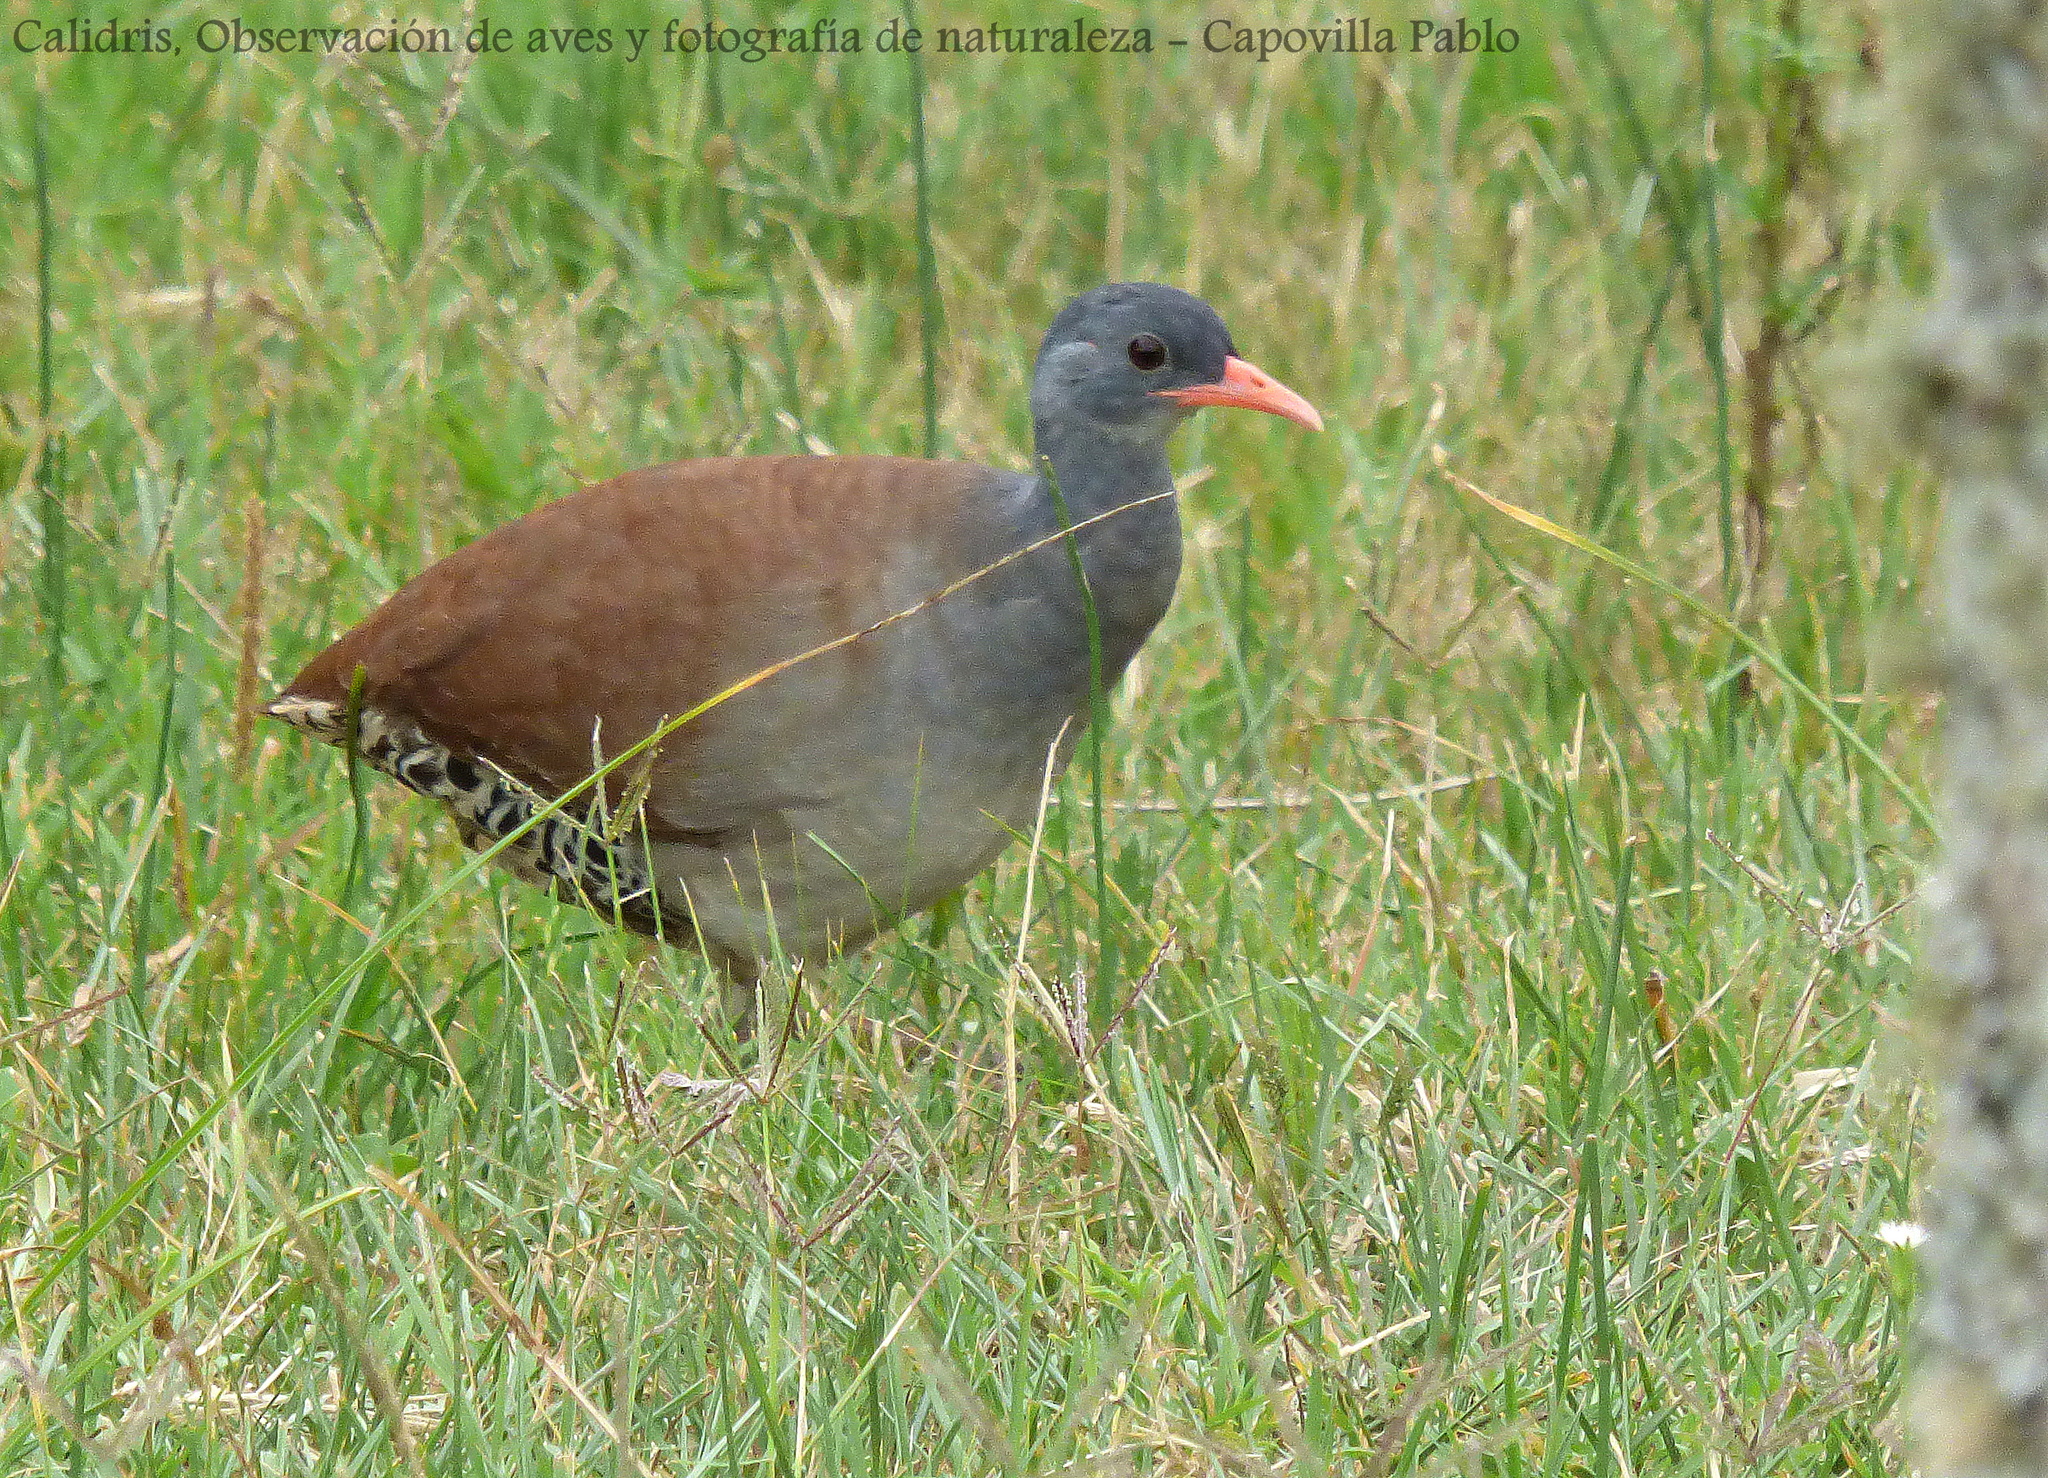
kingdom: Animalia
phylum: Chordata
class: Aves
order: Tinamiformes
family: Tinamidae
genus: Crypturellus
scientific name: Crypturellus tataupa
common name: Tataupa tinamou
